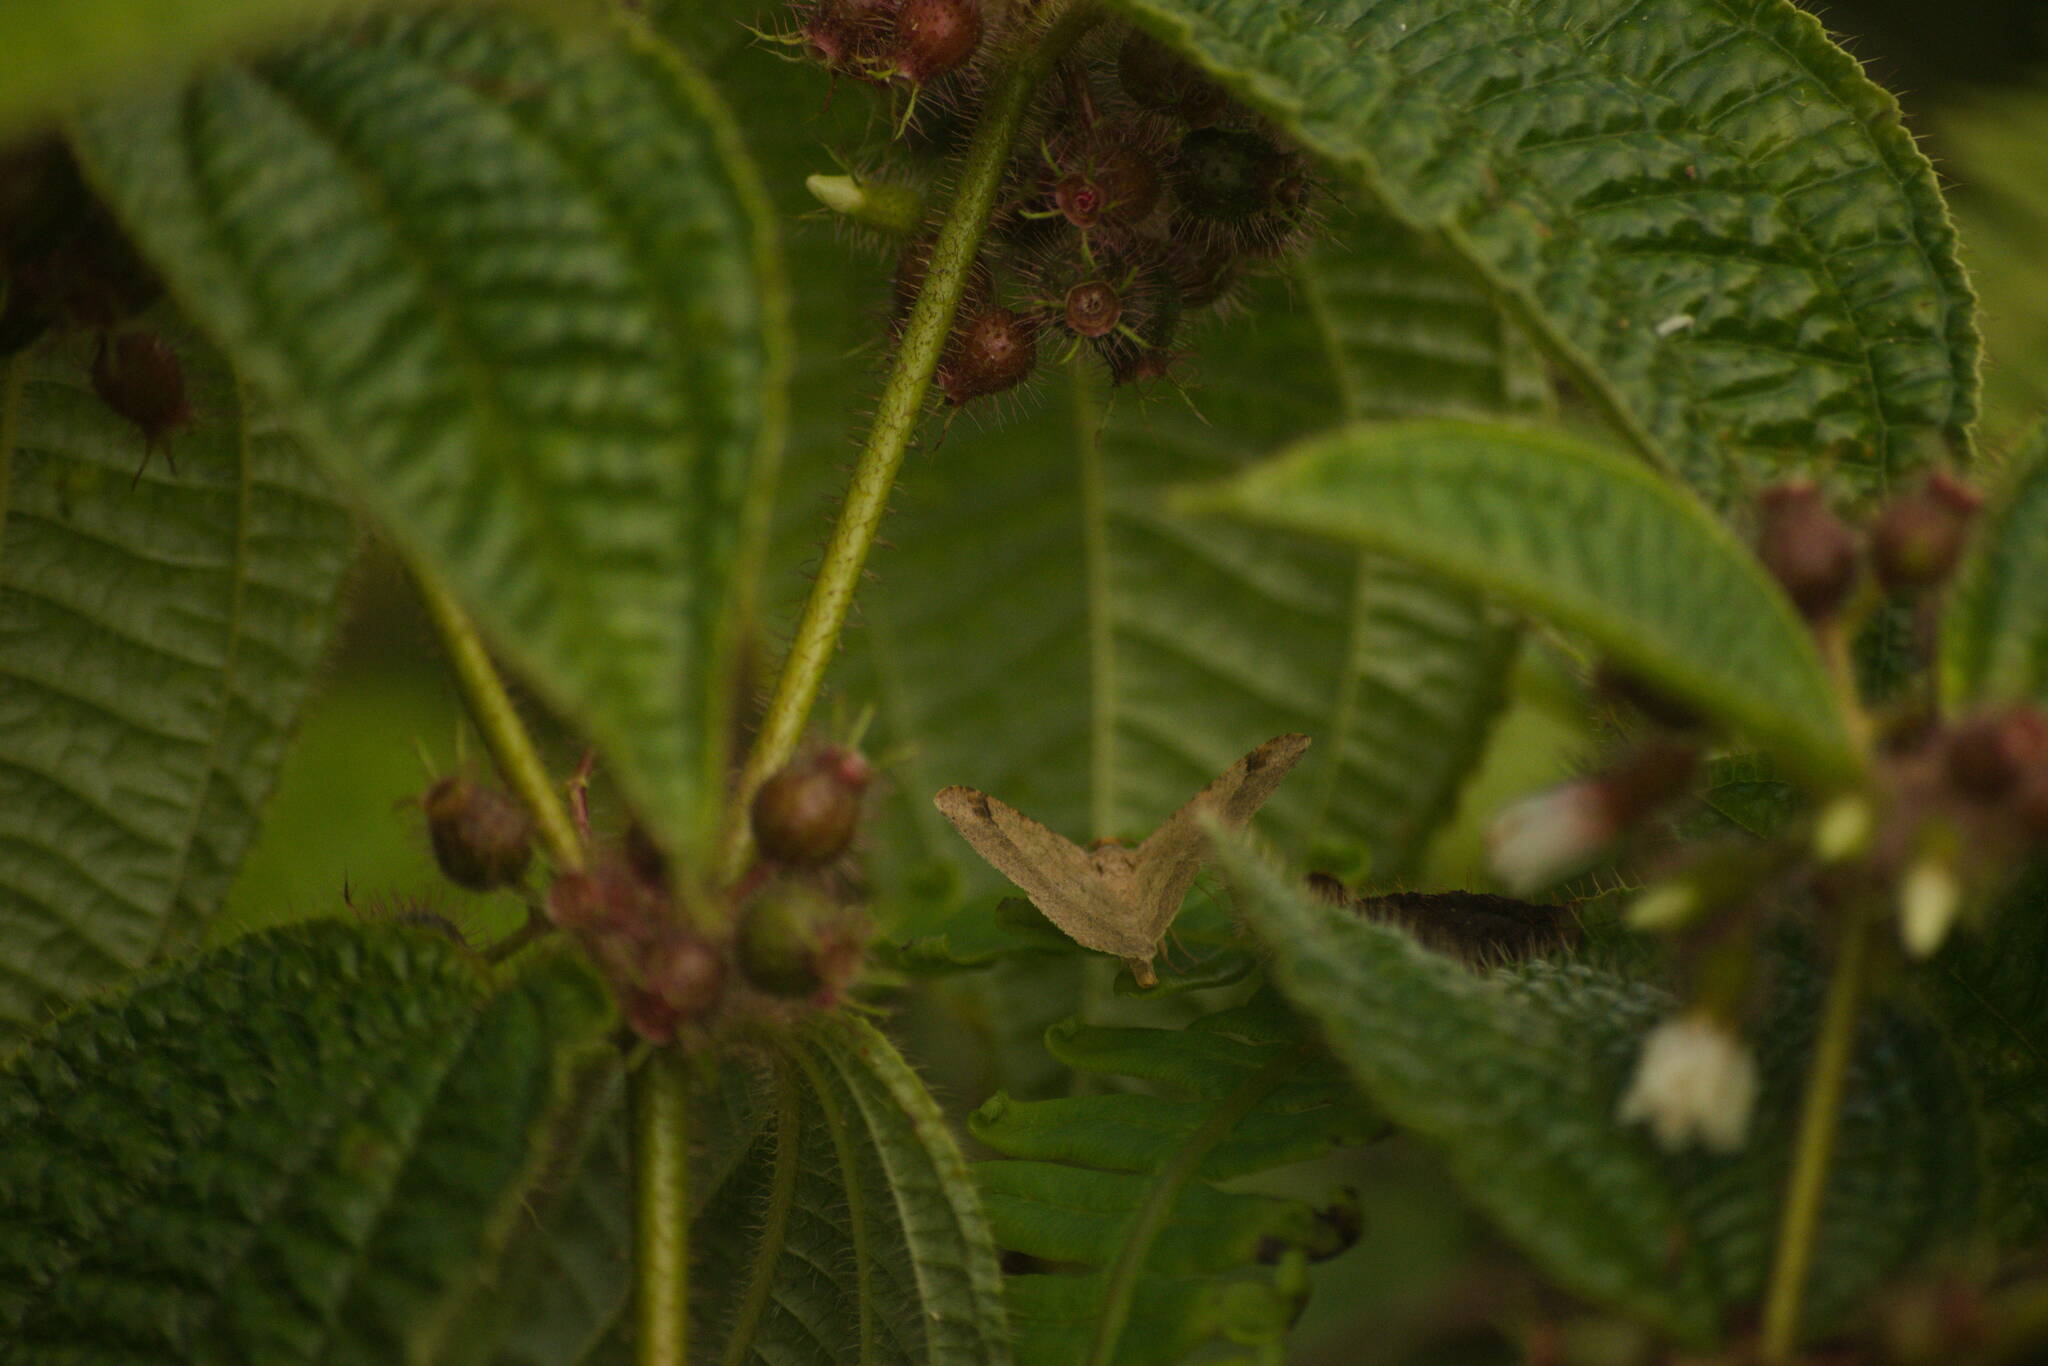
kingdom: Animalia
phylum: Arthropoda
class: Insecta
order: Lepidoptera
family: Geometridae
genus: Macaria
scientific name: Macaria abydata
